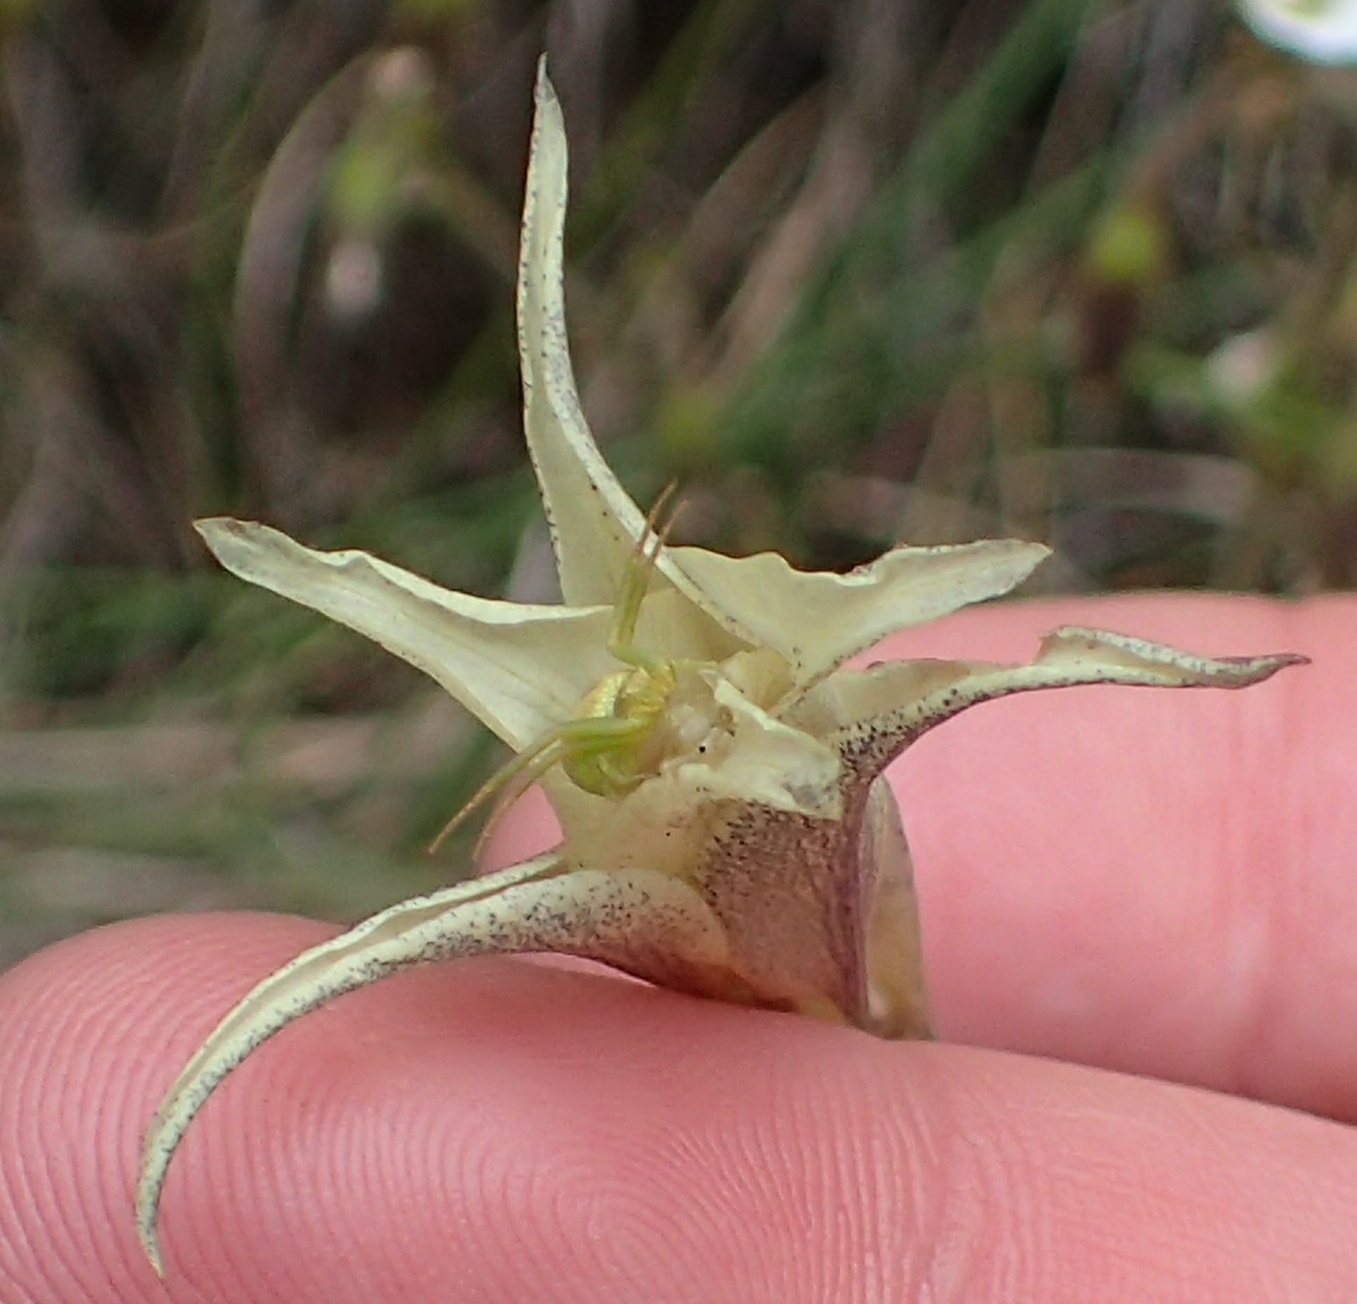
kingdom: Plantae
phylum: Tracheophyta
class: Liliopsida
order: Asparagales
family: Iridaceae
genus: Gladiolus
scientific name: Gladiolus pubigerus
